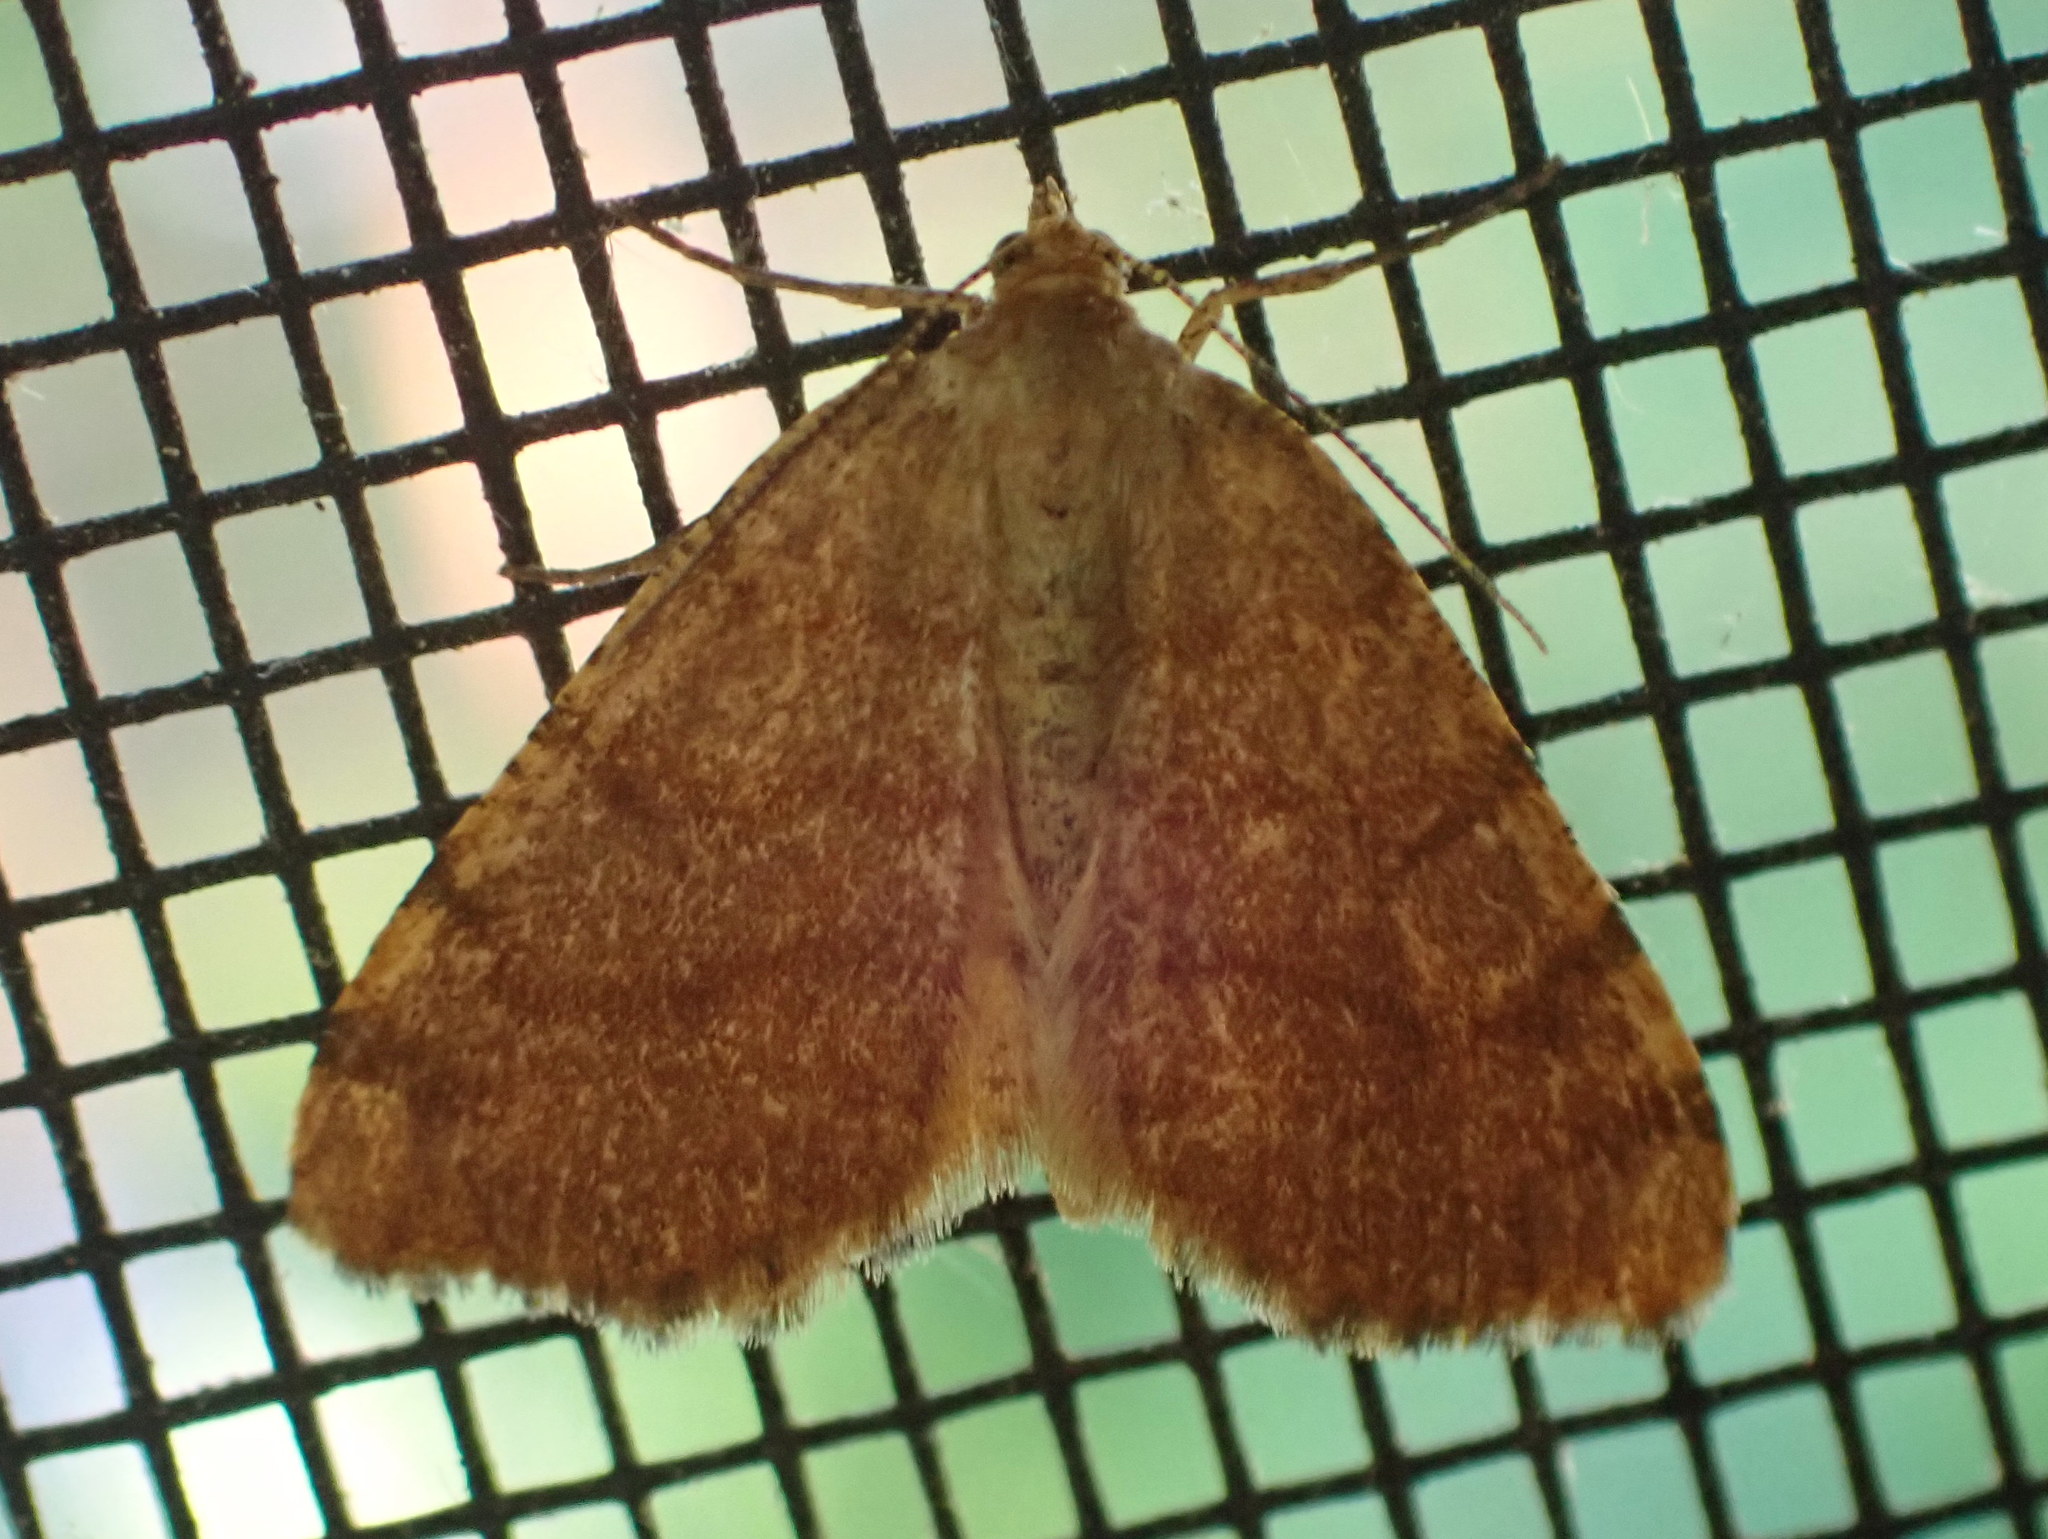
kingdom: Animalia
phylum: Arthropoda
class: Insecta
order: Lepidoptera
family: Geometridae
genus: Macaria
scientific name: Macaria brunneata
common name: Rannoch looper
